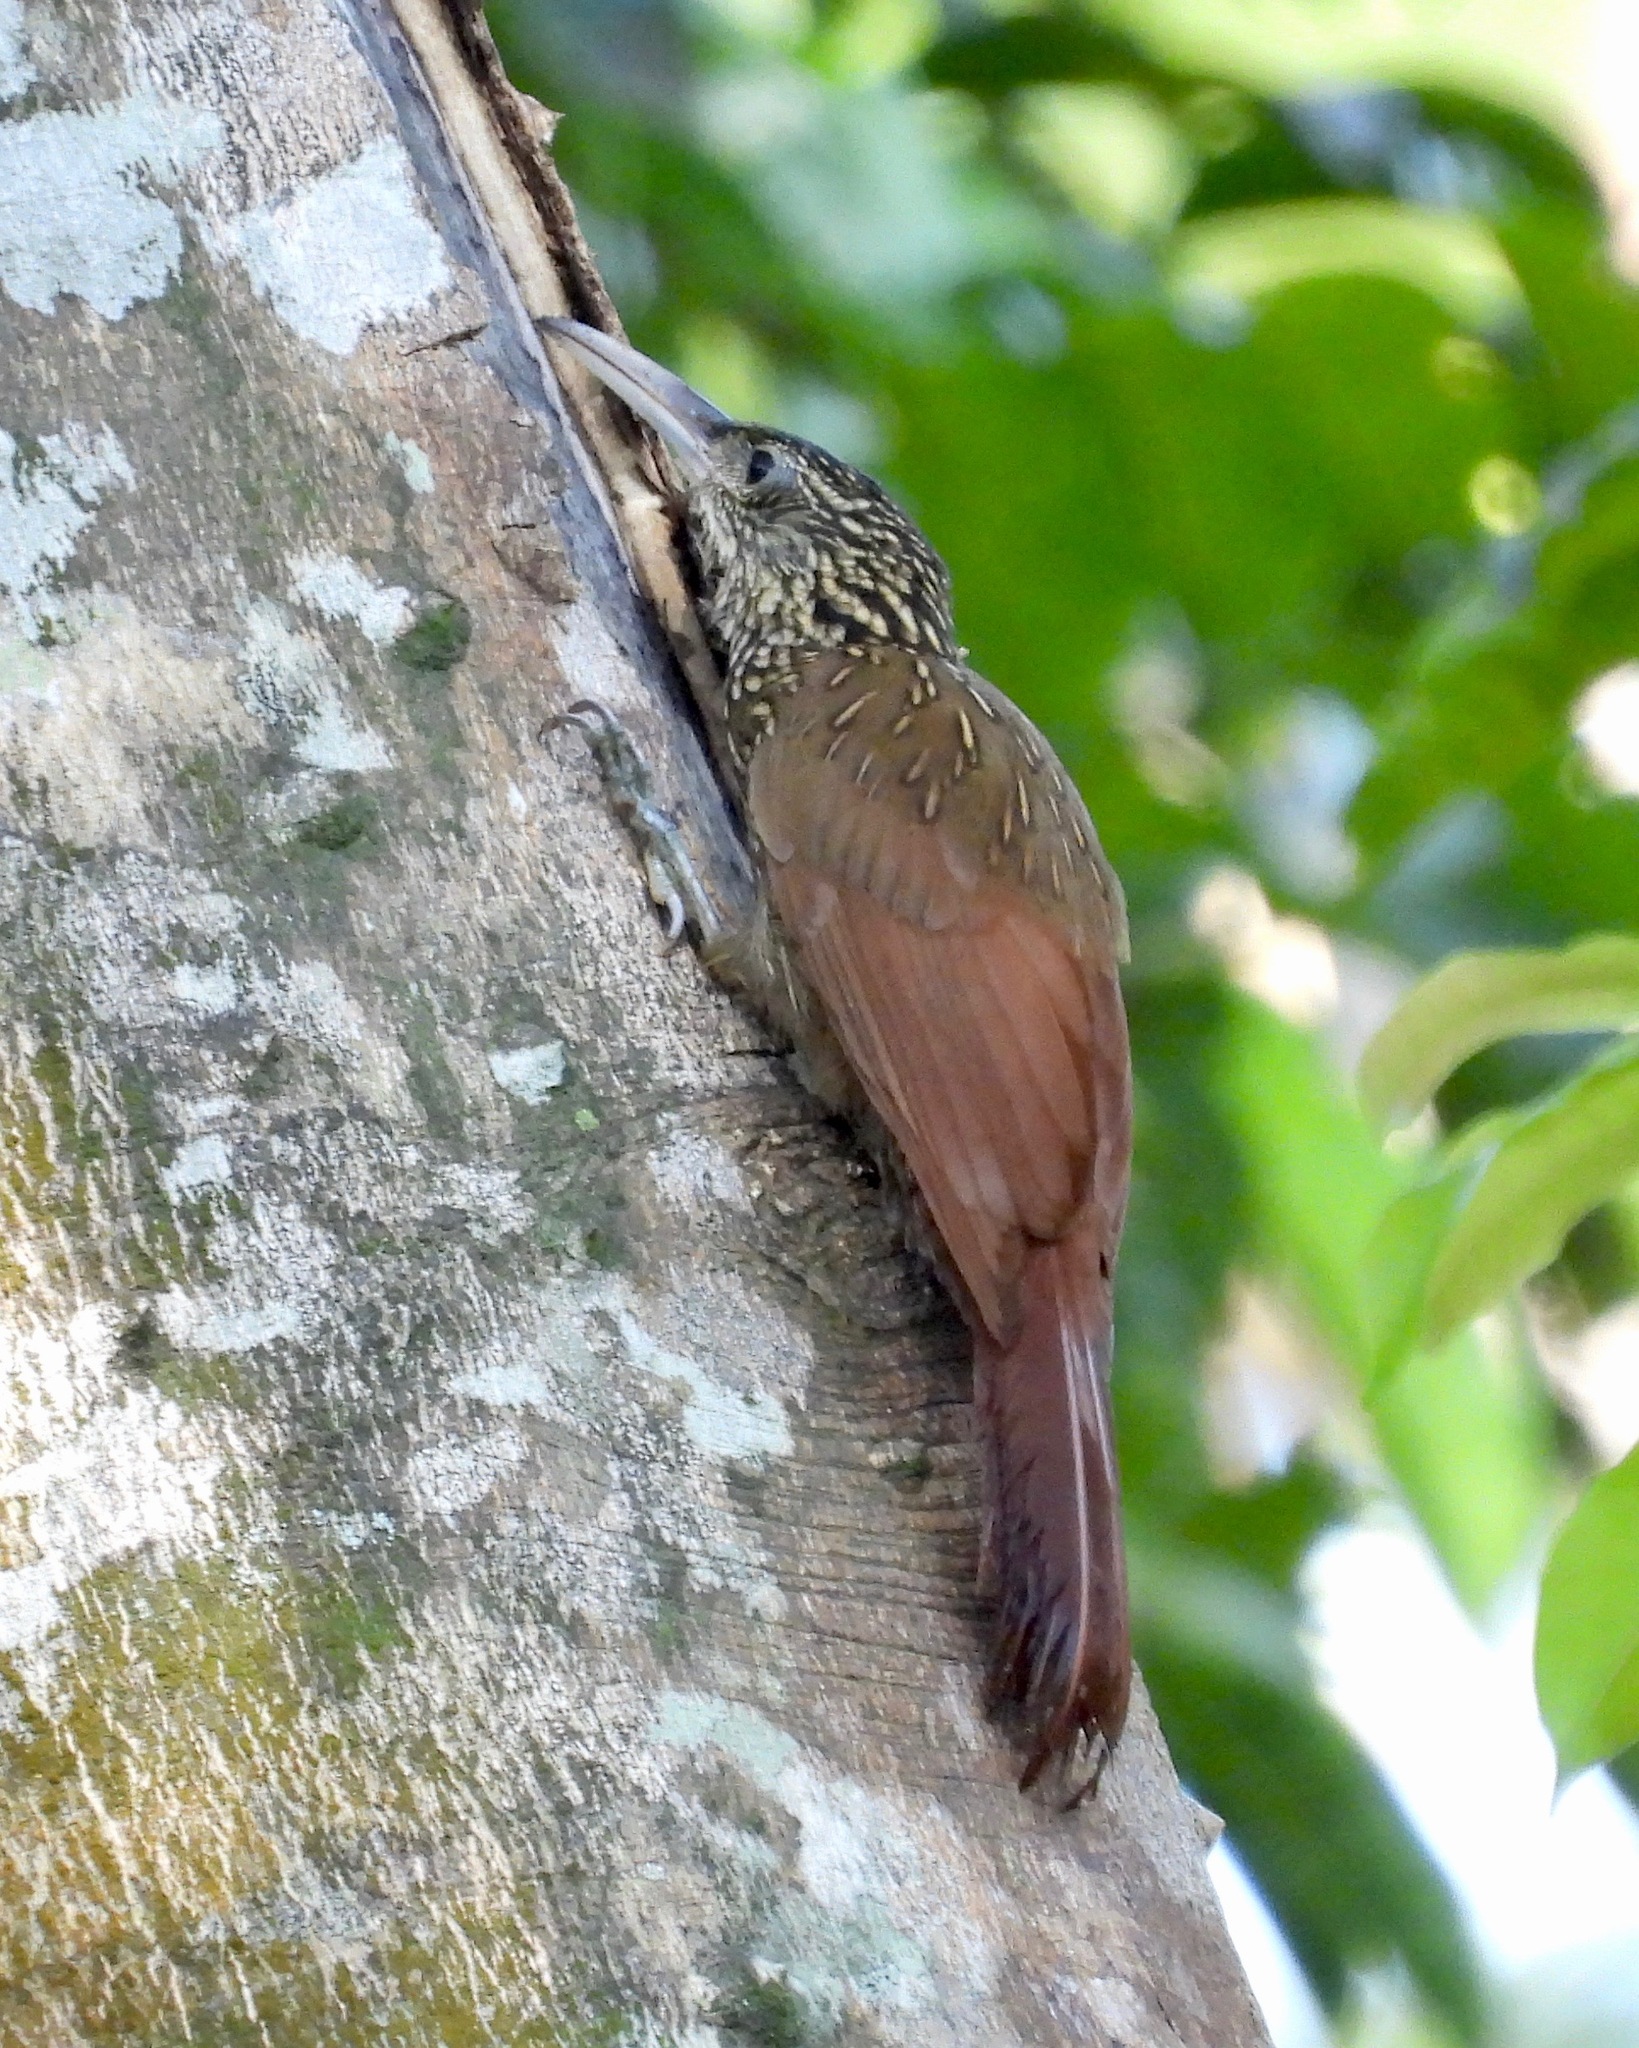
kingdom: Animalia
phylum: Chordata
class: Aves
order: Passeriformes
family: Furnariidae
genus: Xiphorhynchus
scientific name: Xiphorhynchus flavigaster
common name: Ivory-billed woodcreeper
